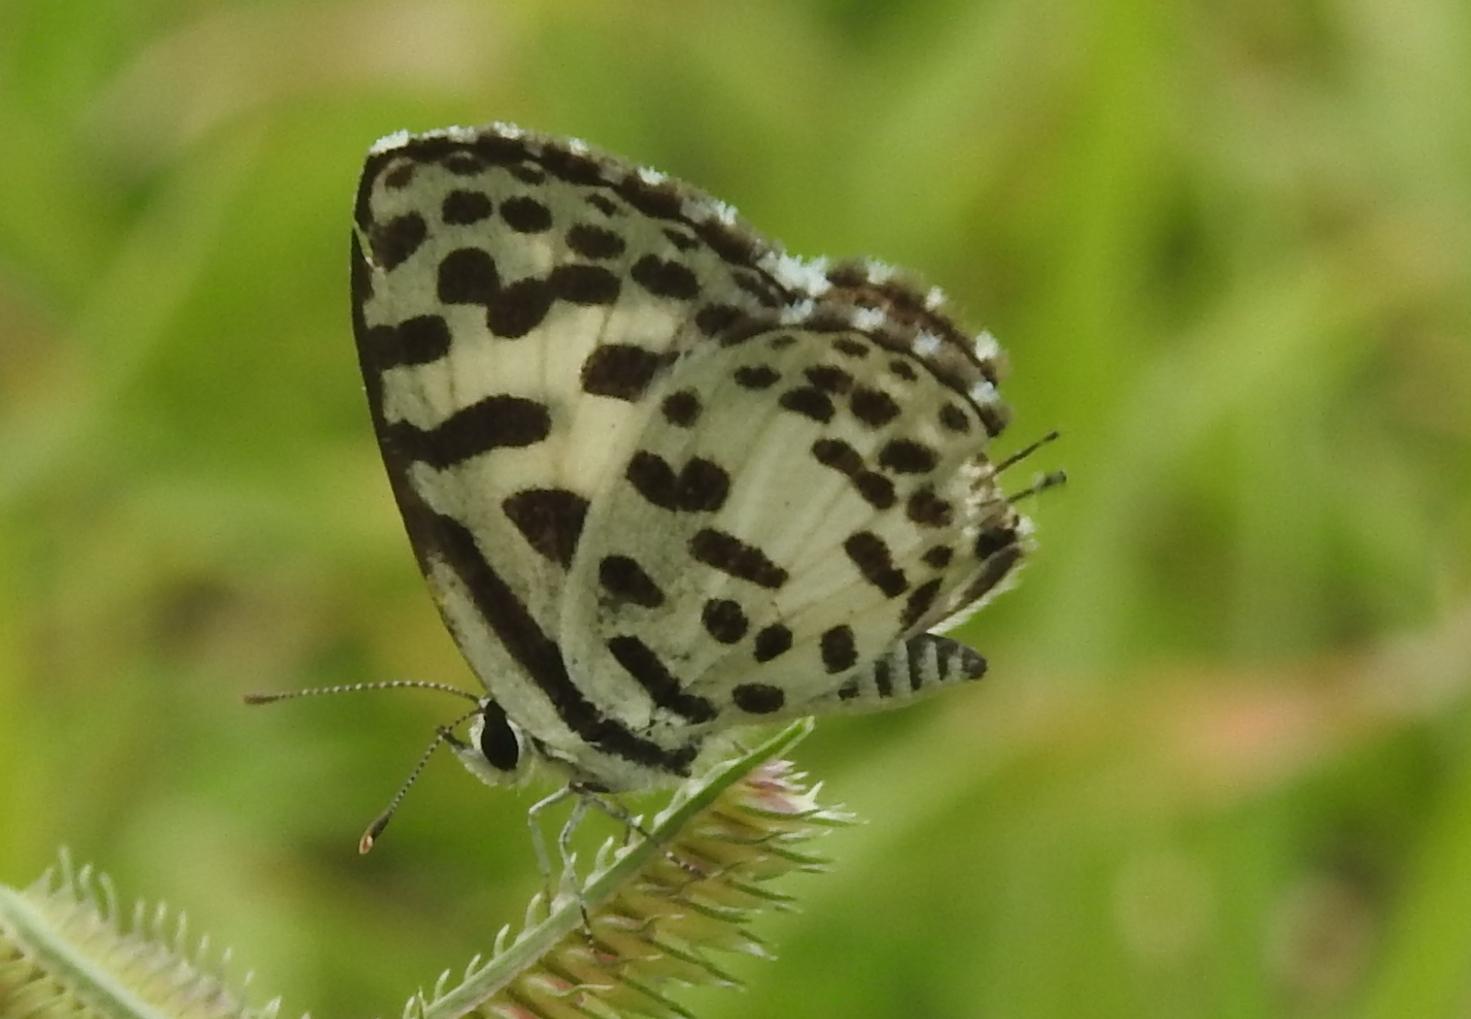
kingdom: Animalia
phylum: Arthropoda
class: Insecta
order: Lepidoptera
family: Lycaenidae
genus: Castalius
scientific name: Castalius rosimon
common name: Common pierrot
